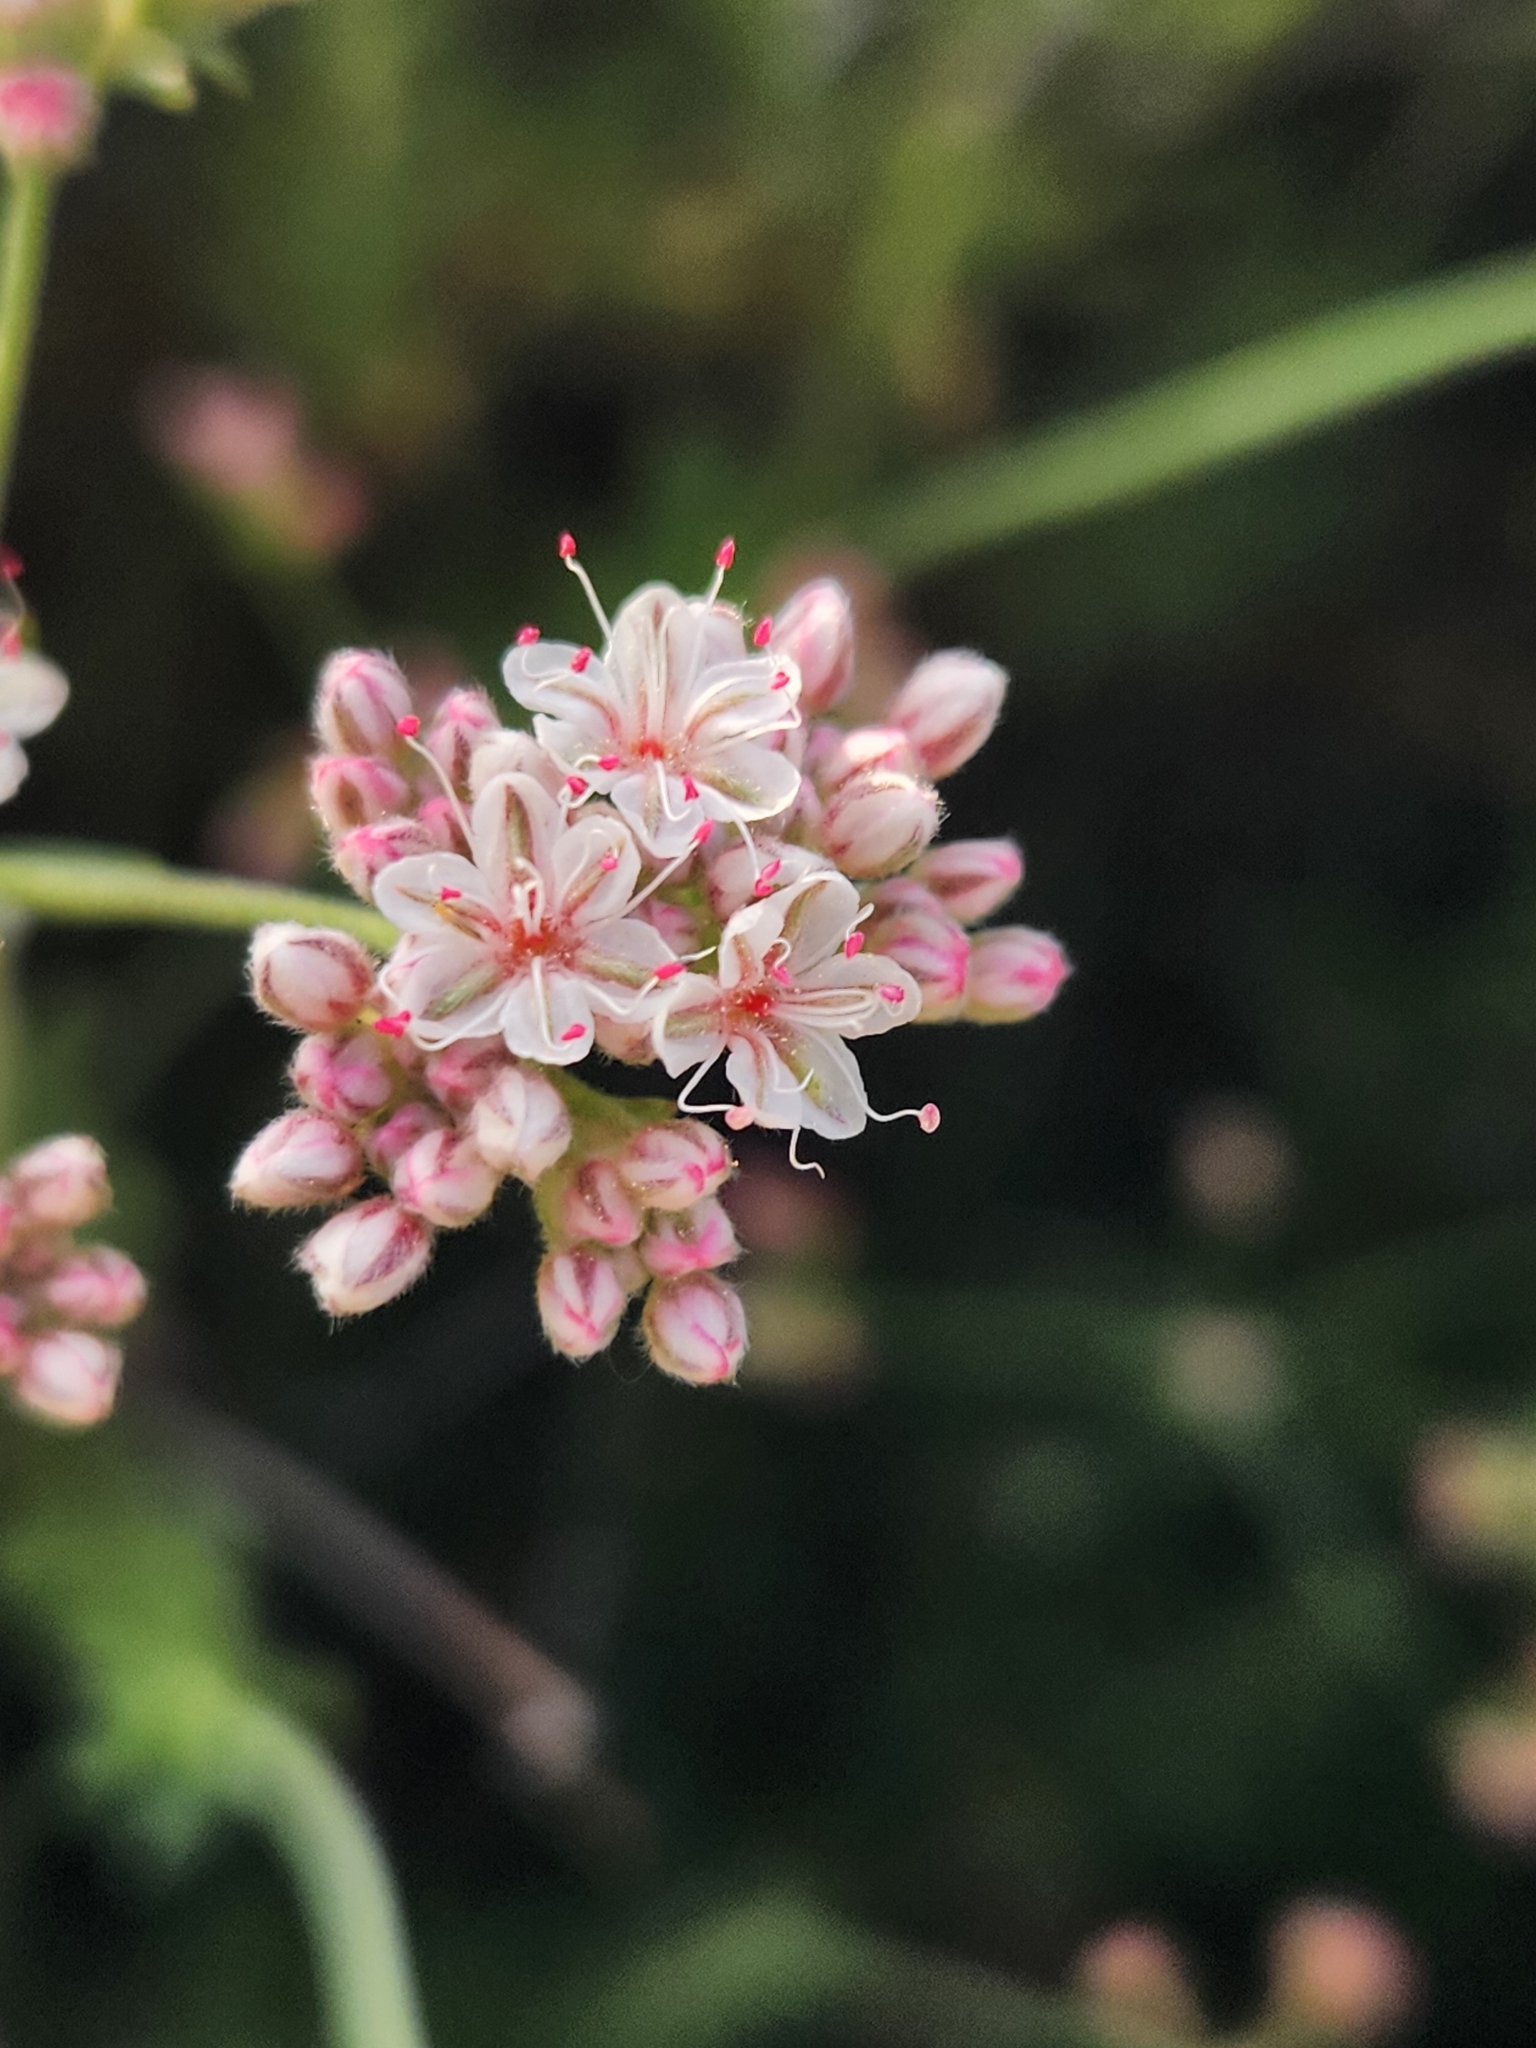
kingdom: Plantae
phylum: Tracheophyta
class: Magnoliopsida
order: Caryophyllales
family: Polygonaceae
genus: Eriogonum
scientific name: Eriogonum fasciculatum
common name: California wild buckwheat
